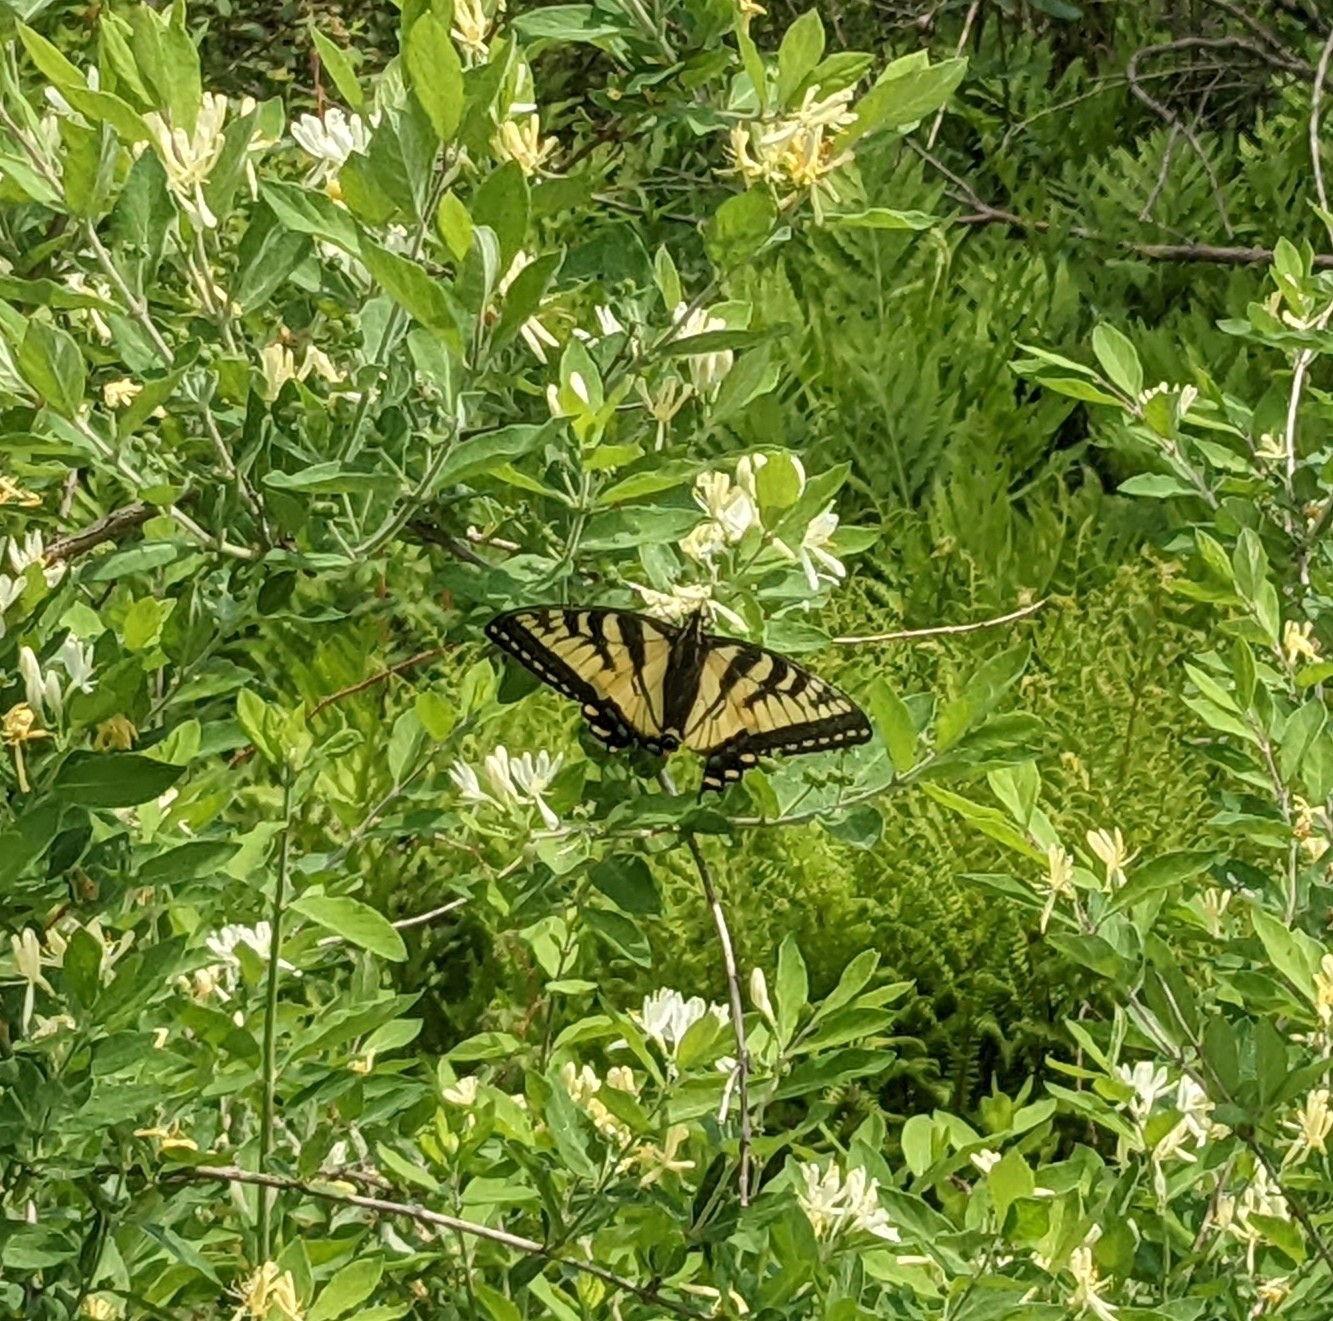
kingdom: Animalia
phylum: Arthropoda
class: Insecta
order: Lepidoptera
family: Papilionidae
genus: Papilio
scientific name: Papilio canadensis
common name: Canadian tiger swallowtail
